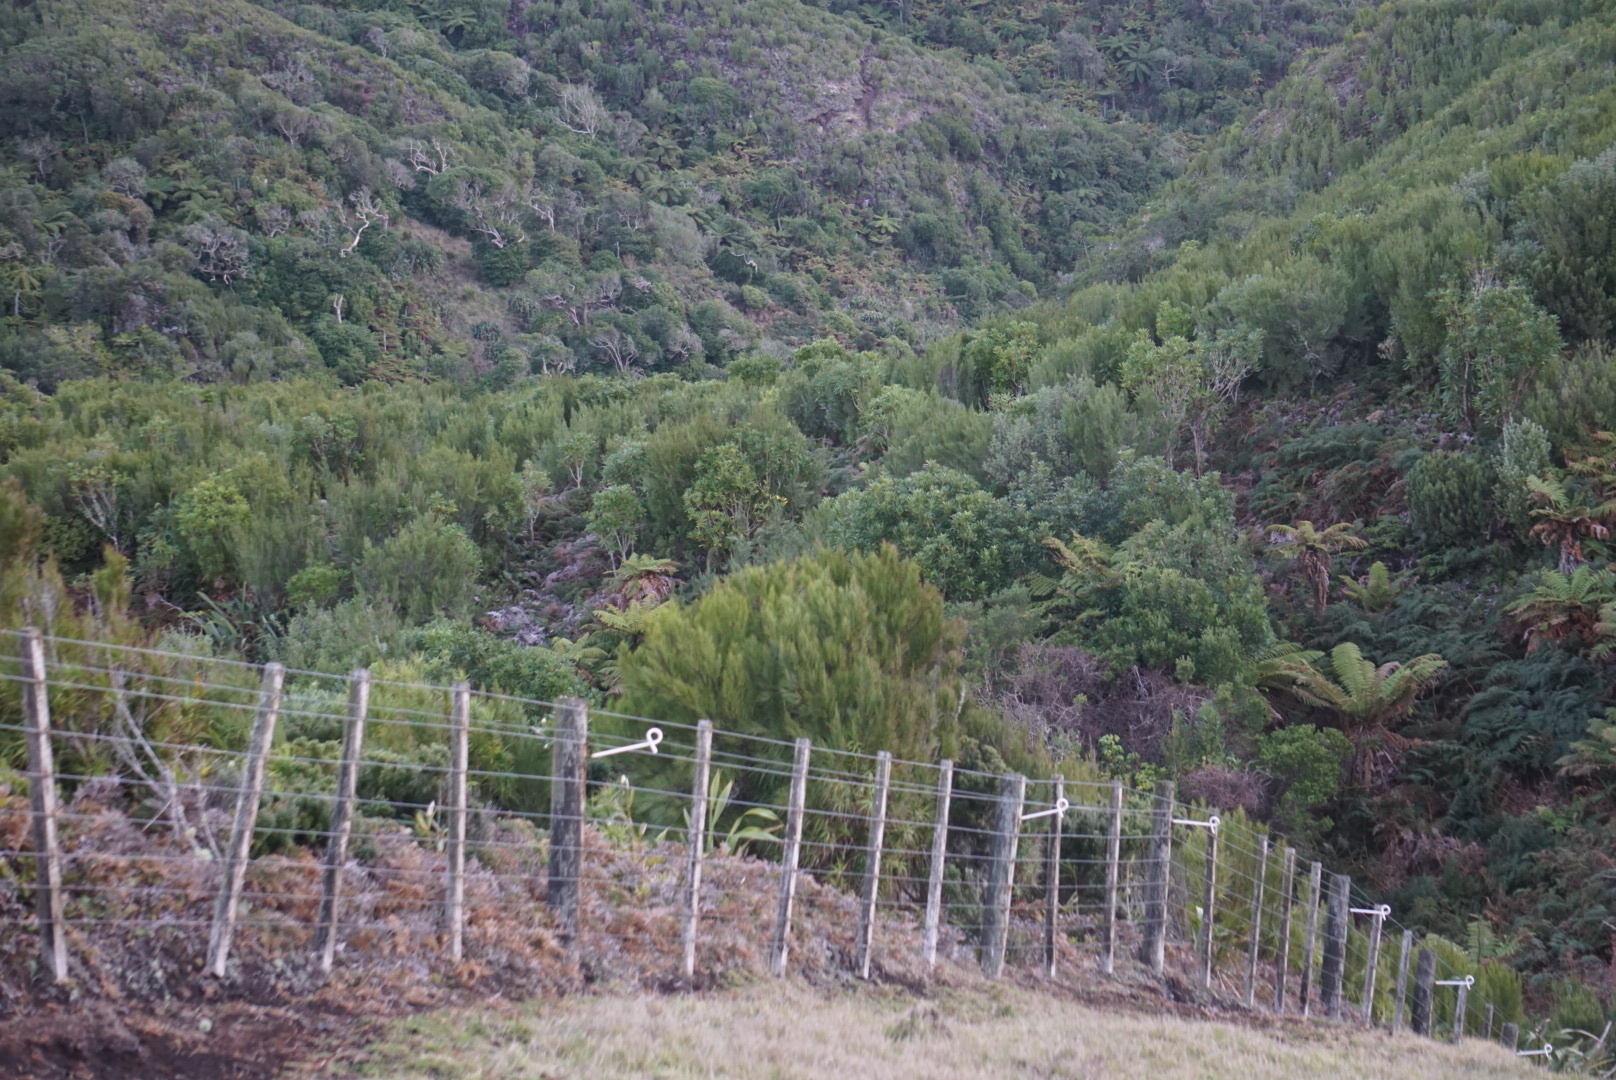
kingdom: Plantae
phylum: Tracheophyta
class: Magnoliopsida
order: Ericales
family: Ericaceae
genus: Dracophyllum
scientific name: Dracophyllum arboreum
